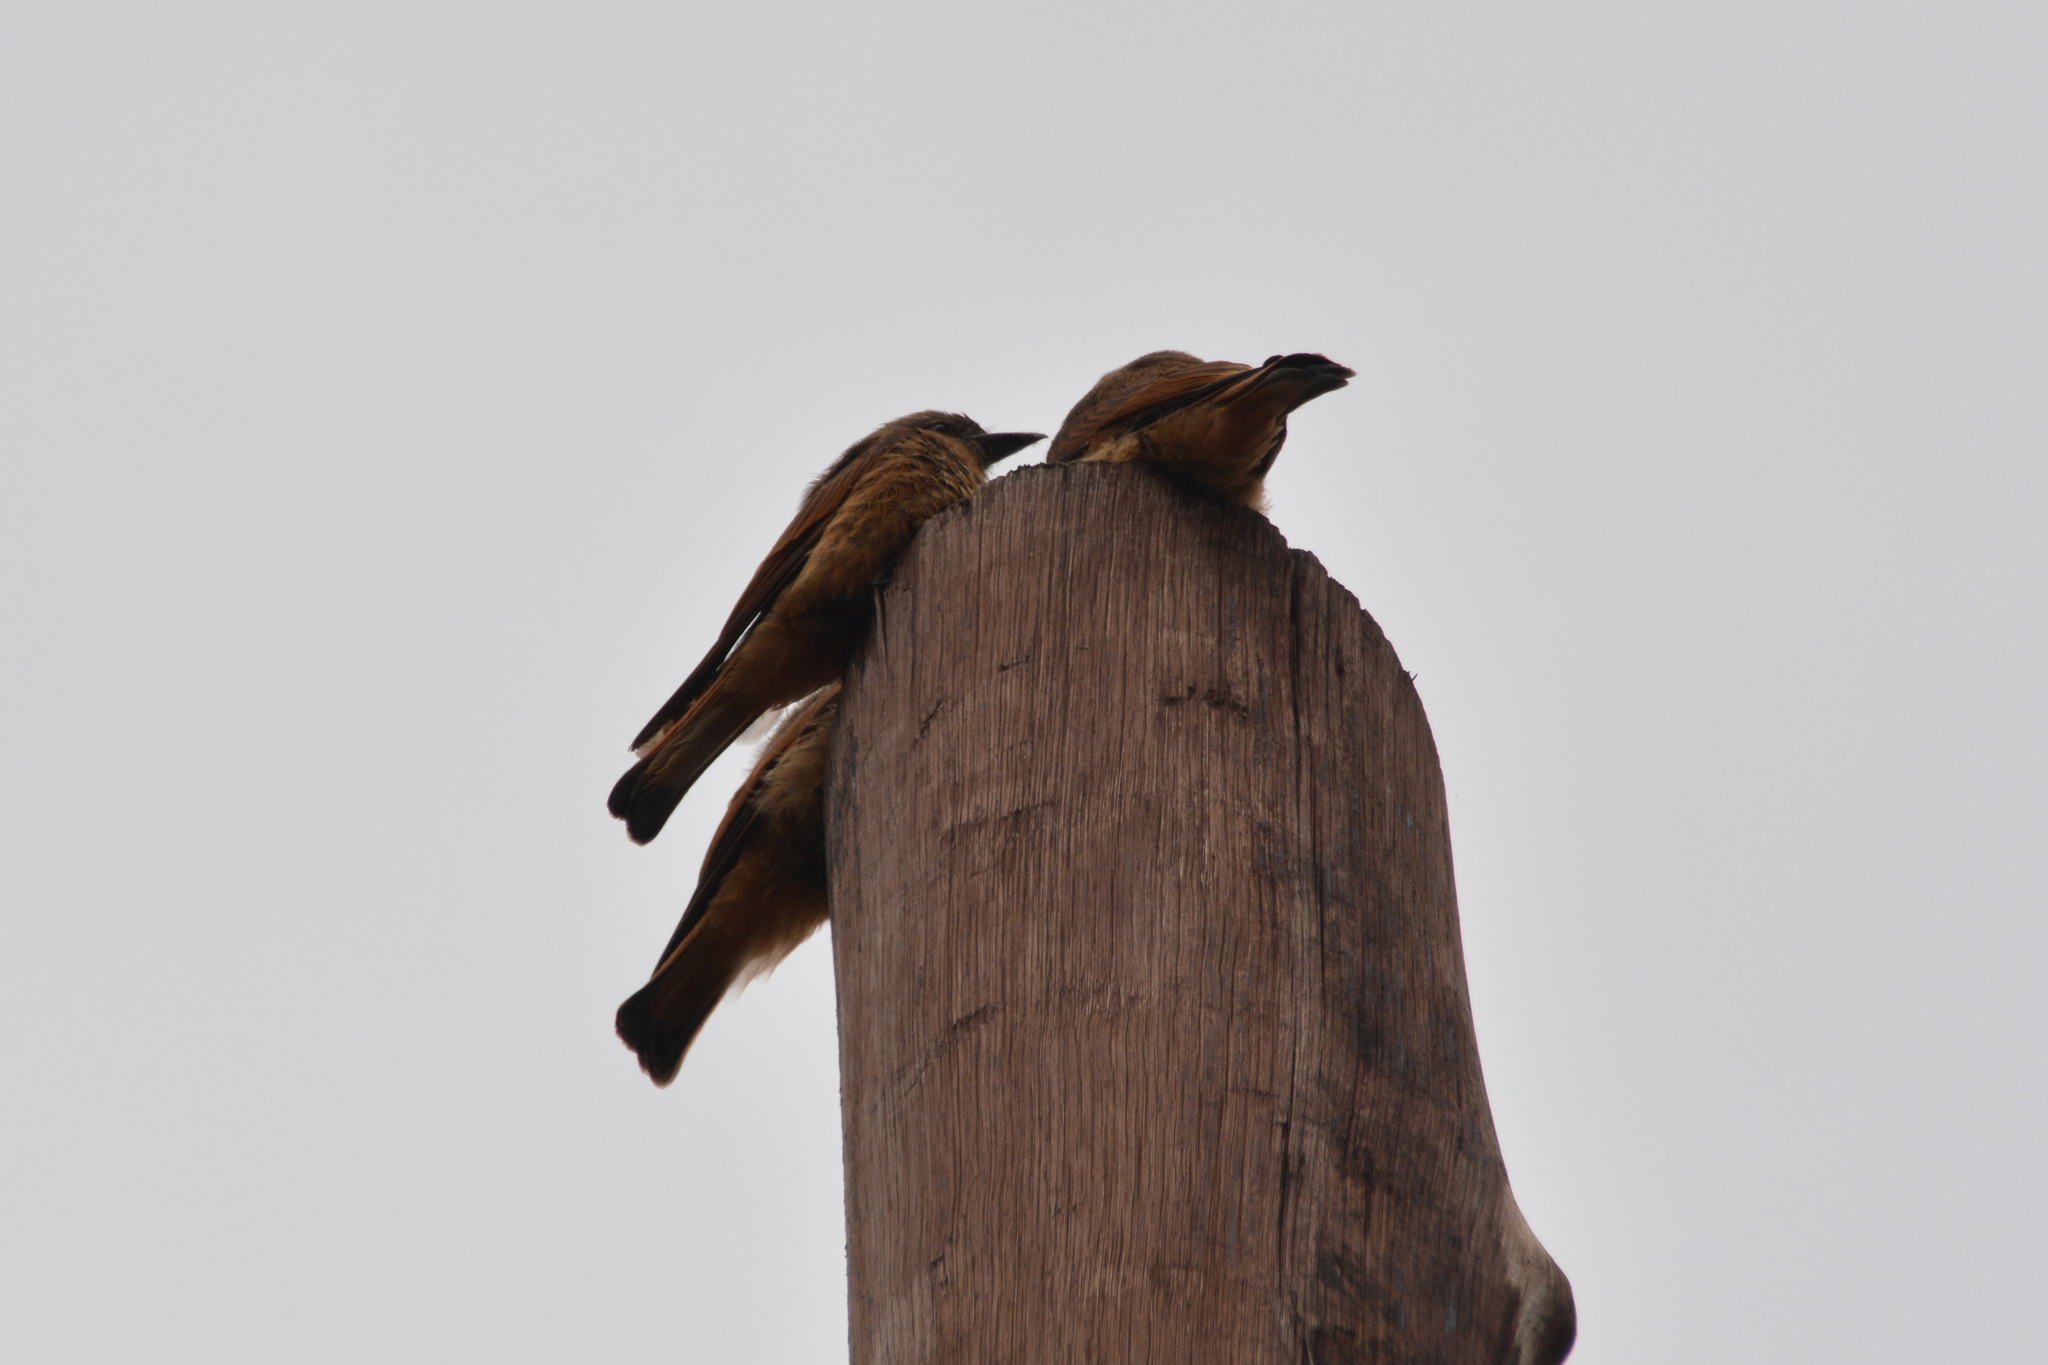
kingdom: Animalia
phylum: Chordata
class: Aves
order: Passeriformes
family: Tyrannidae
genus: Hirundinea
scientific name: Hirundinea ferruginea
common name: Cliff flycatcher
